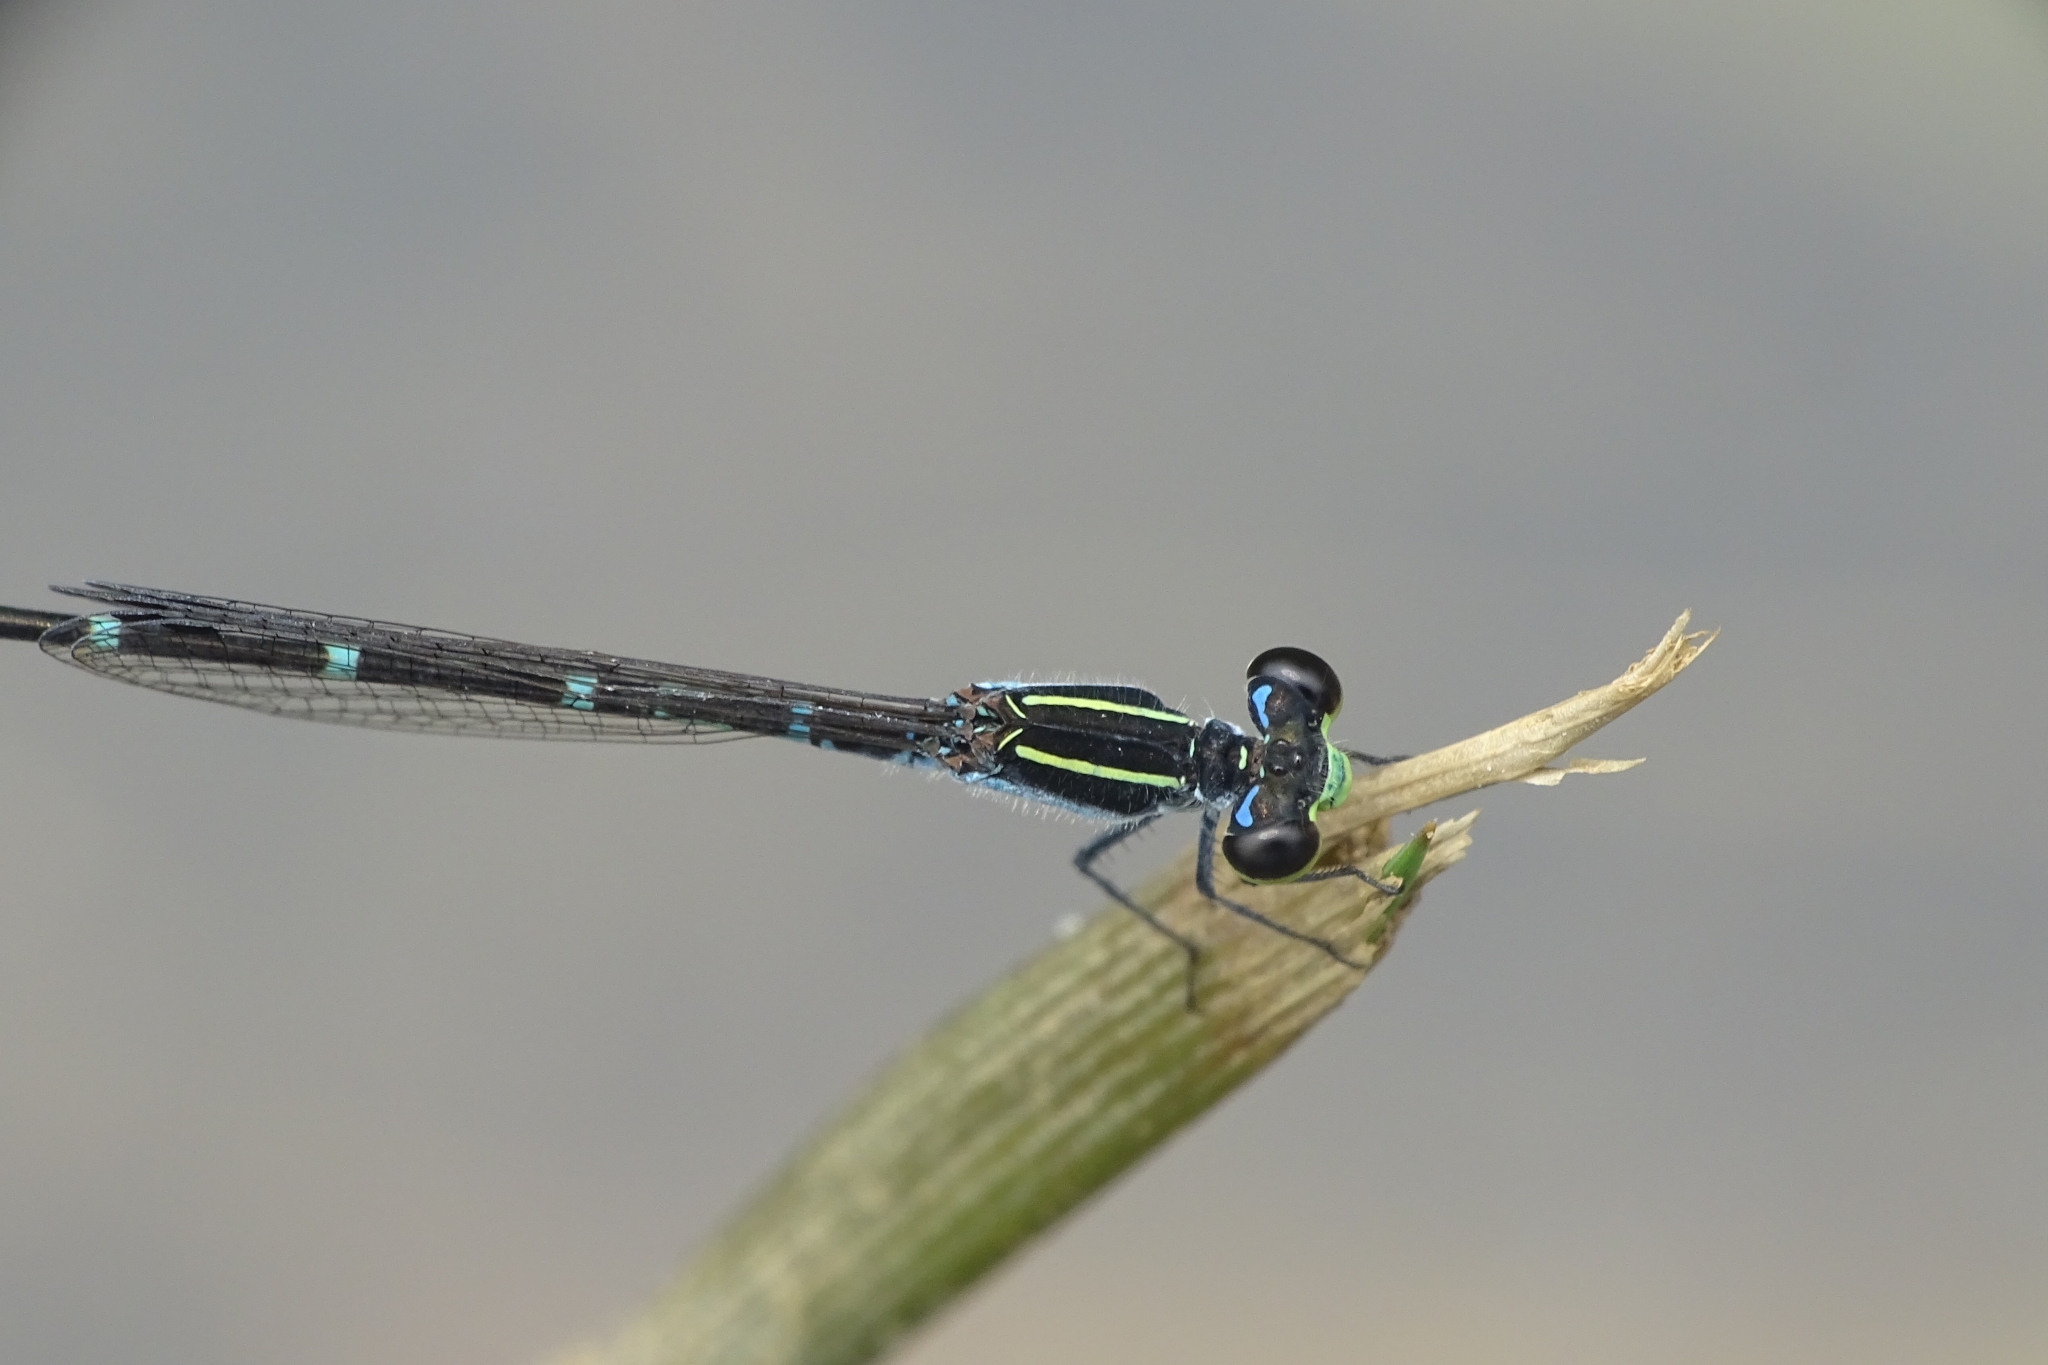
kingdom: Animalia
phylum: Arthropoda
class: Insecta
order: Odonata
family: Coenagrionidae
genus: Agriocnemis
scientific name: Agriocnemis splendidissima
